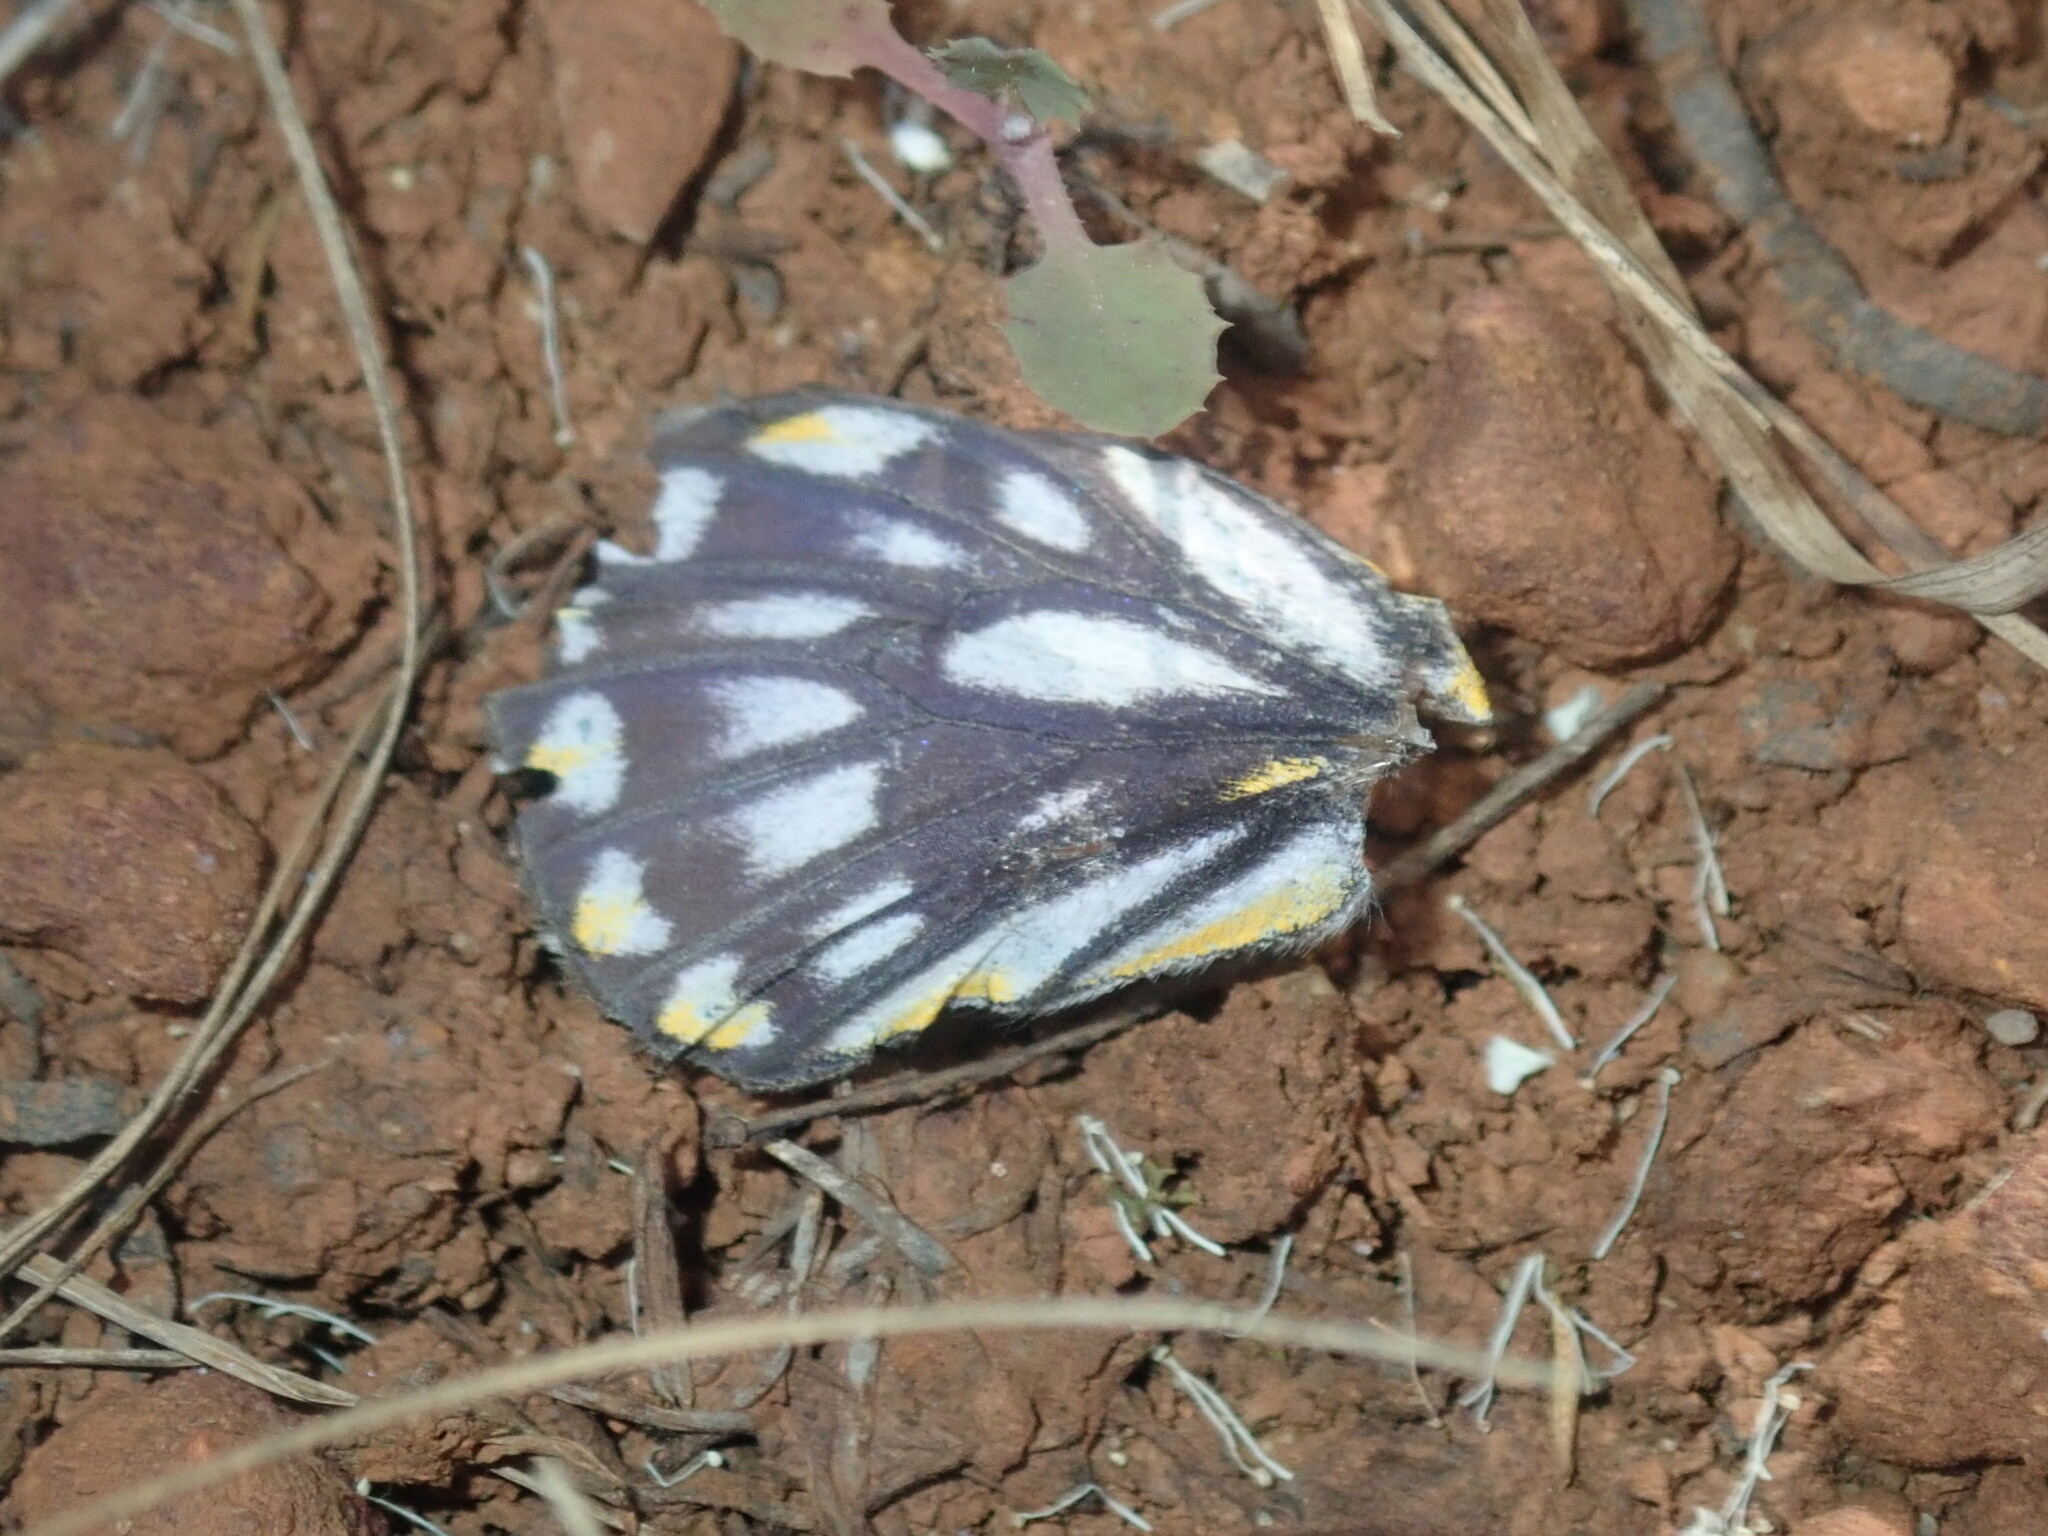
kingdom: Animalia
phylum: Arthropoda
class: Insecta
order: Lepidoptera
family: Pieridae
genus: Belenois
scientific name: Belenois java
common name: Caper white
